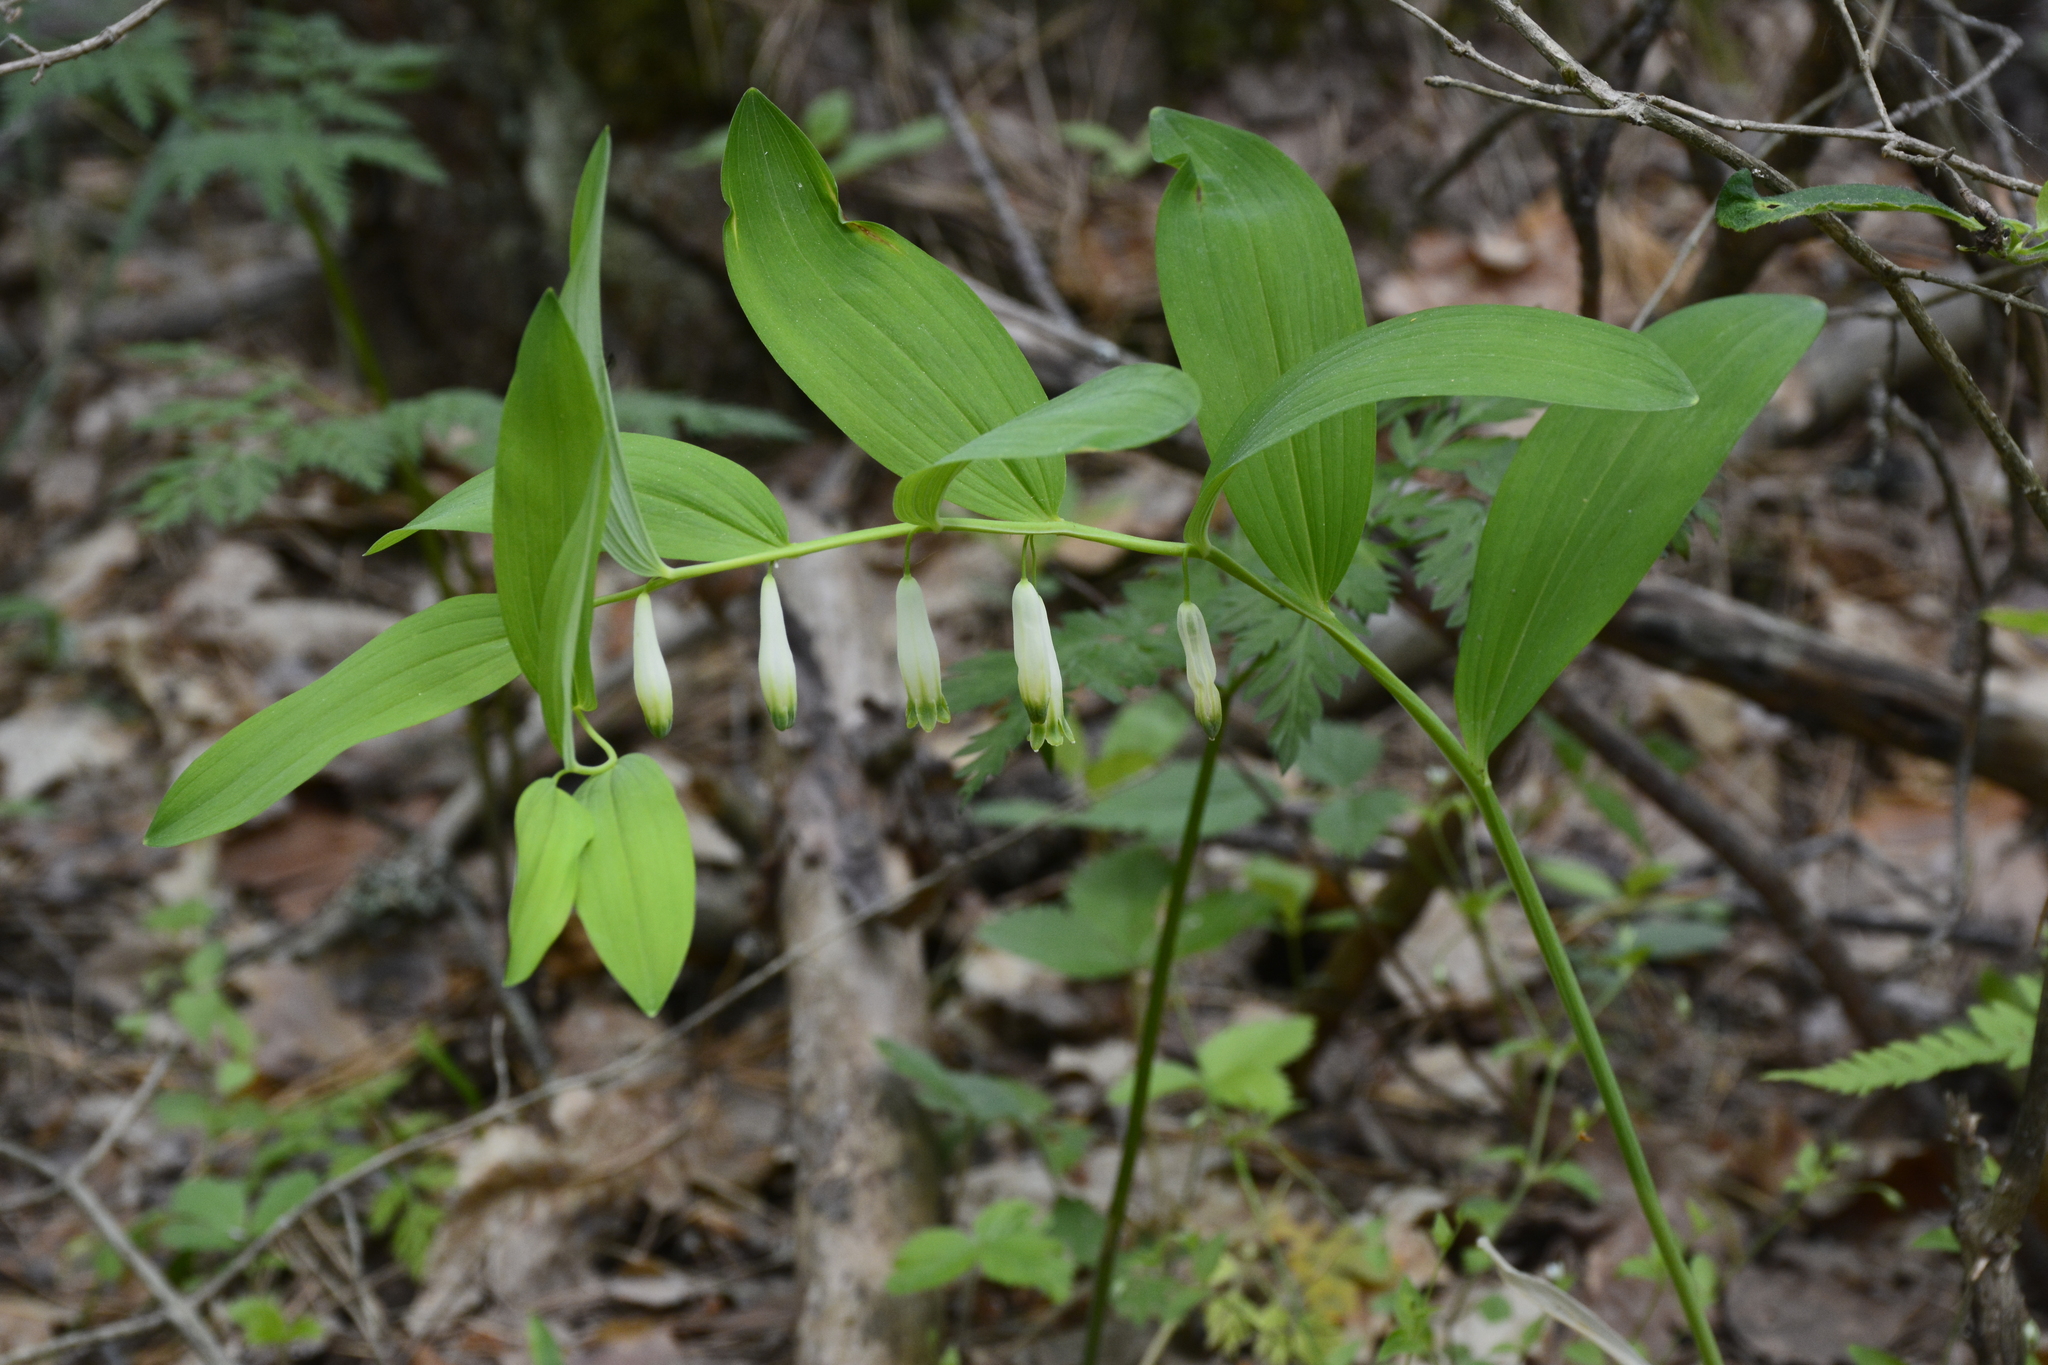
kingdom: Plantae
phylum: Tracheophyta
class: Liliopsida
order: Asparagales
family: Asparagaceae
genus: Polygonatum
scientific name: Polygonatum odoratum
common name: Angular solomon's-seal
